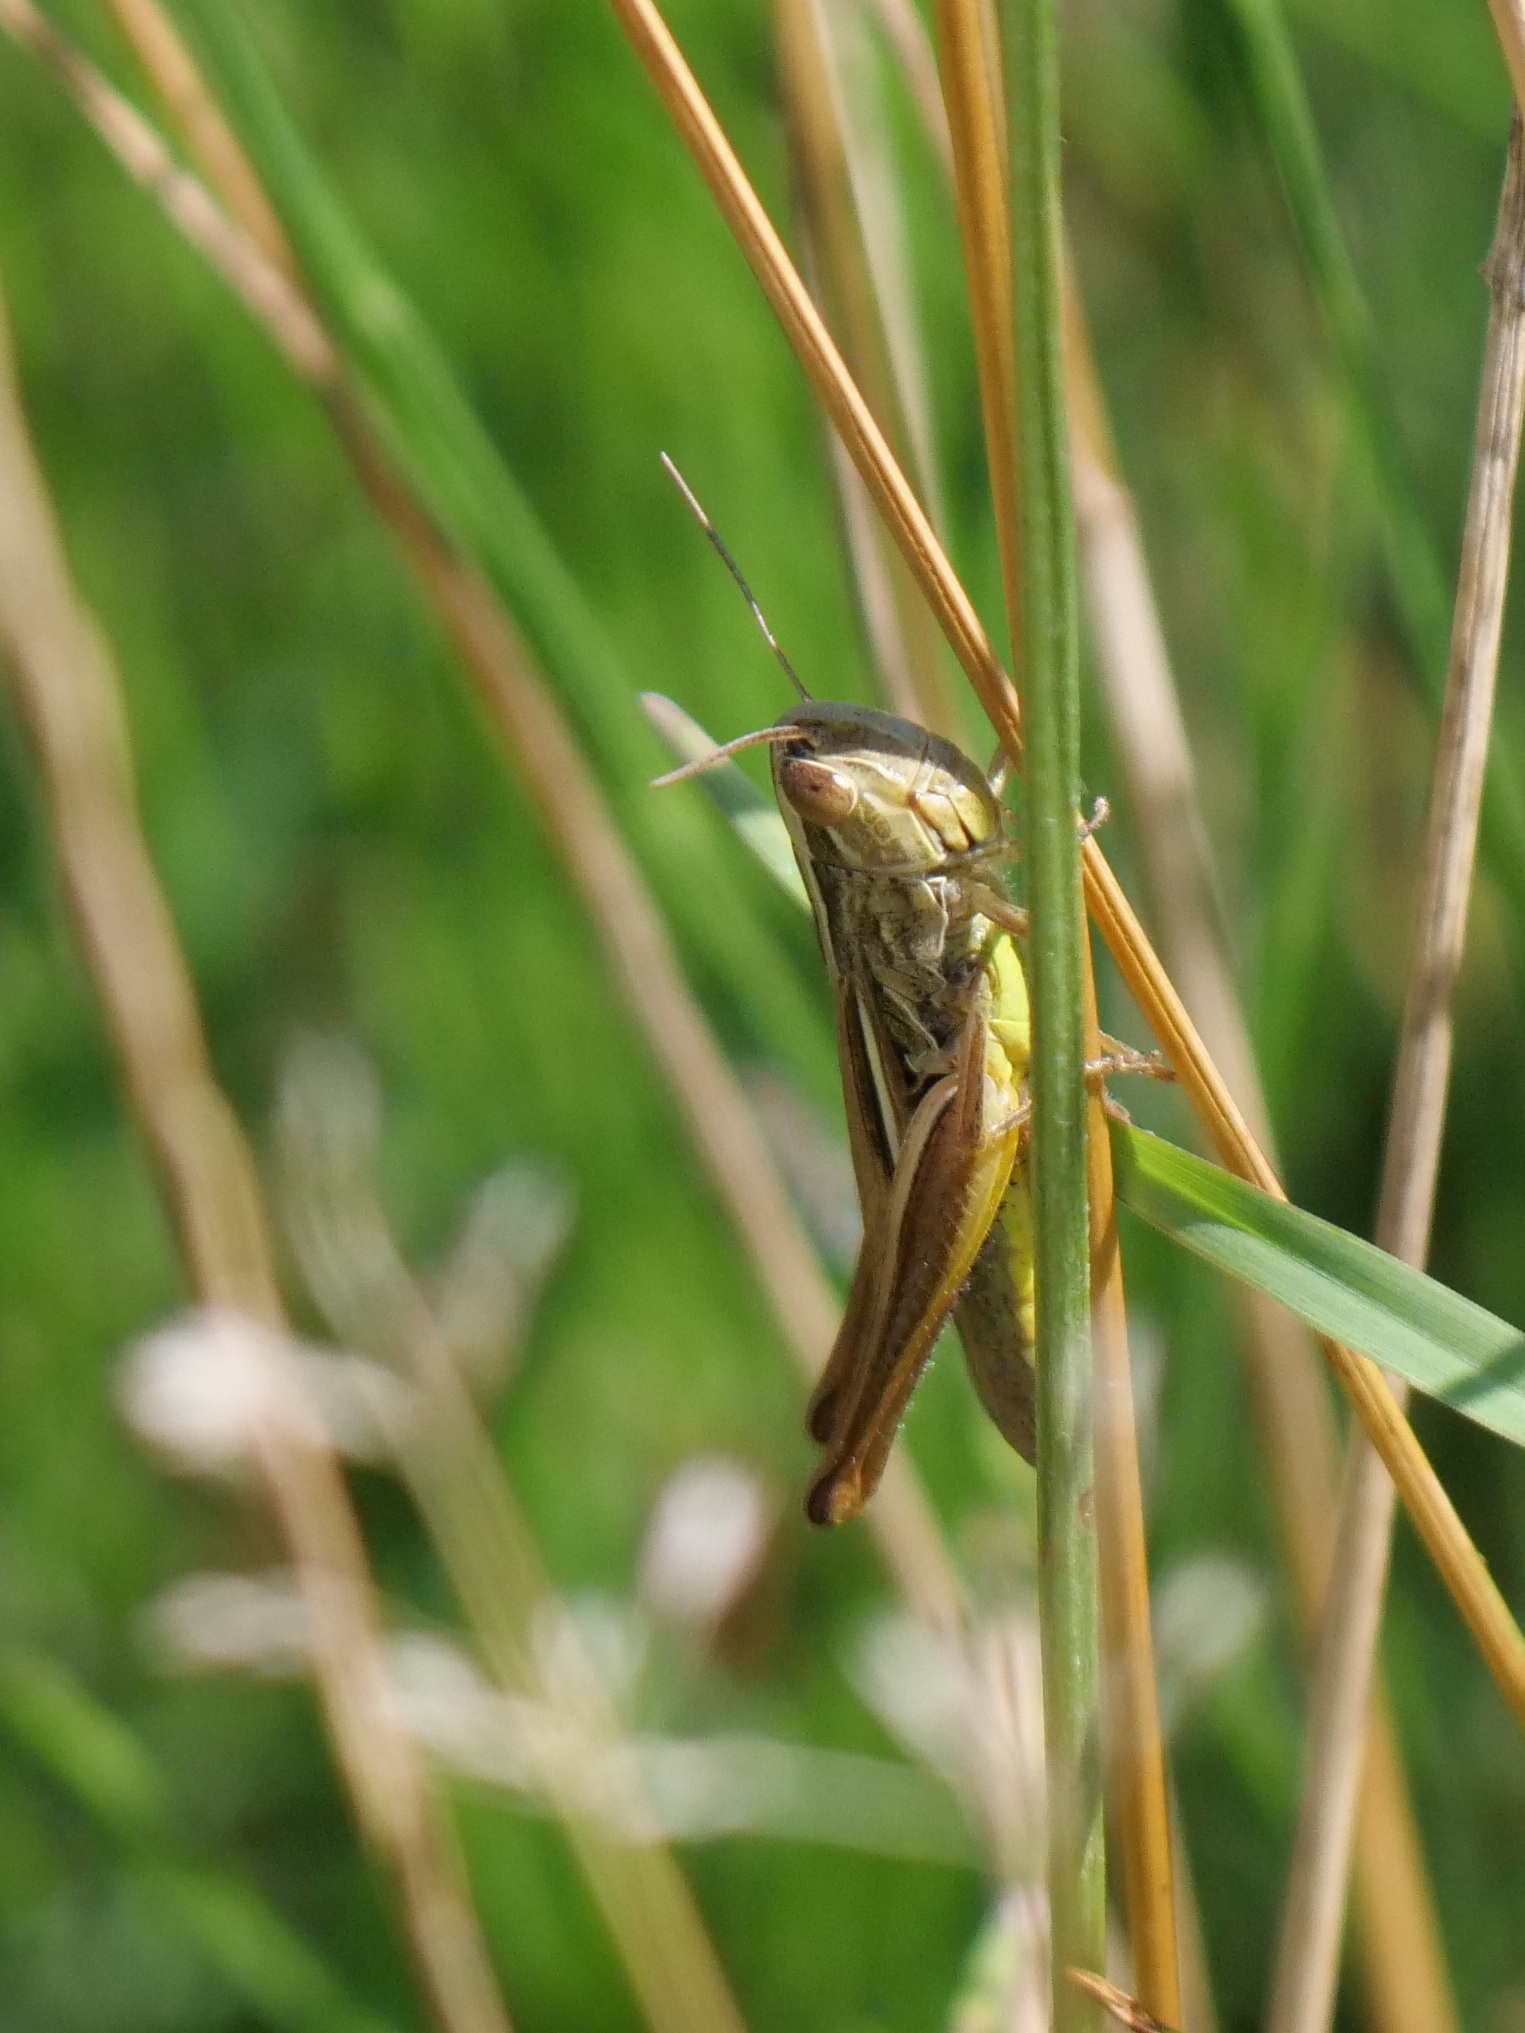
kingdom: Animalia
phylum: Arthropoda
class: Insecta
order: Orthoptera
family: Acrididae
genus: Euchorthippus
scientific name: Euchorthippus declivus
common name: Common straw grasshopper
